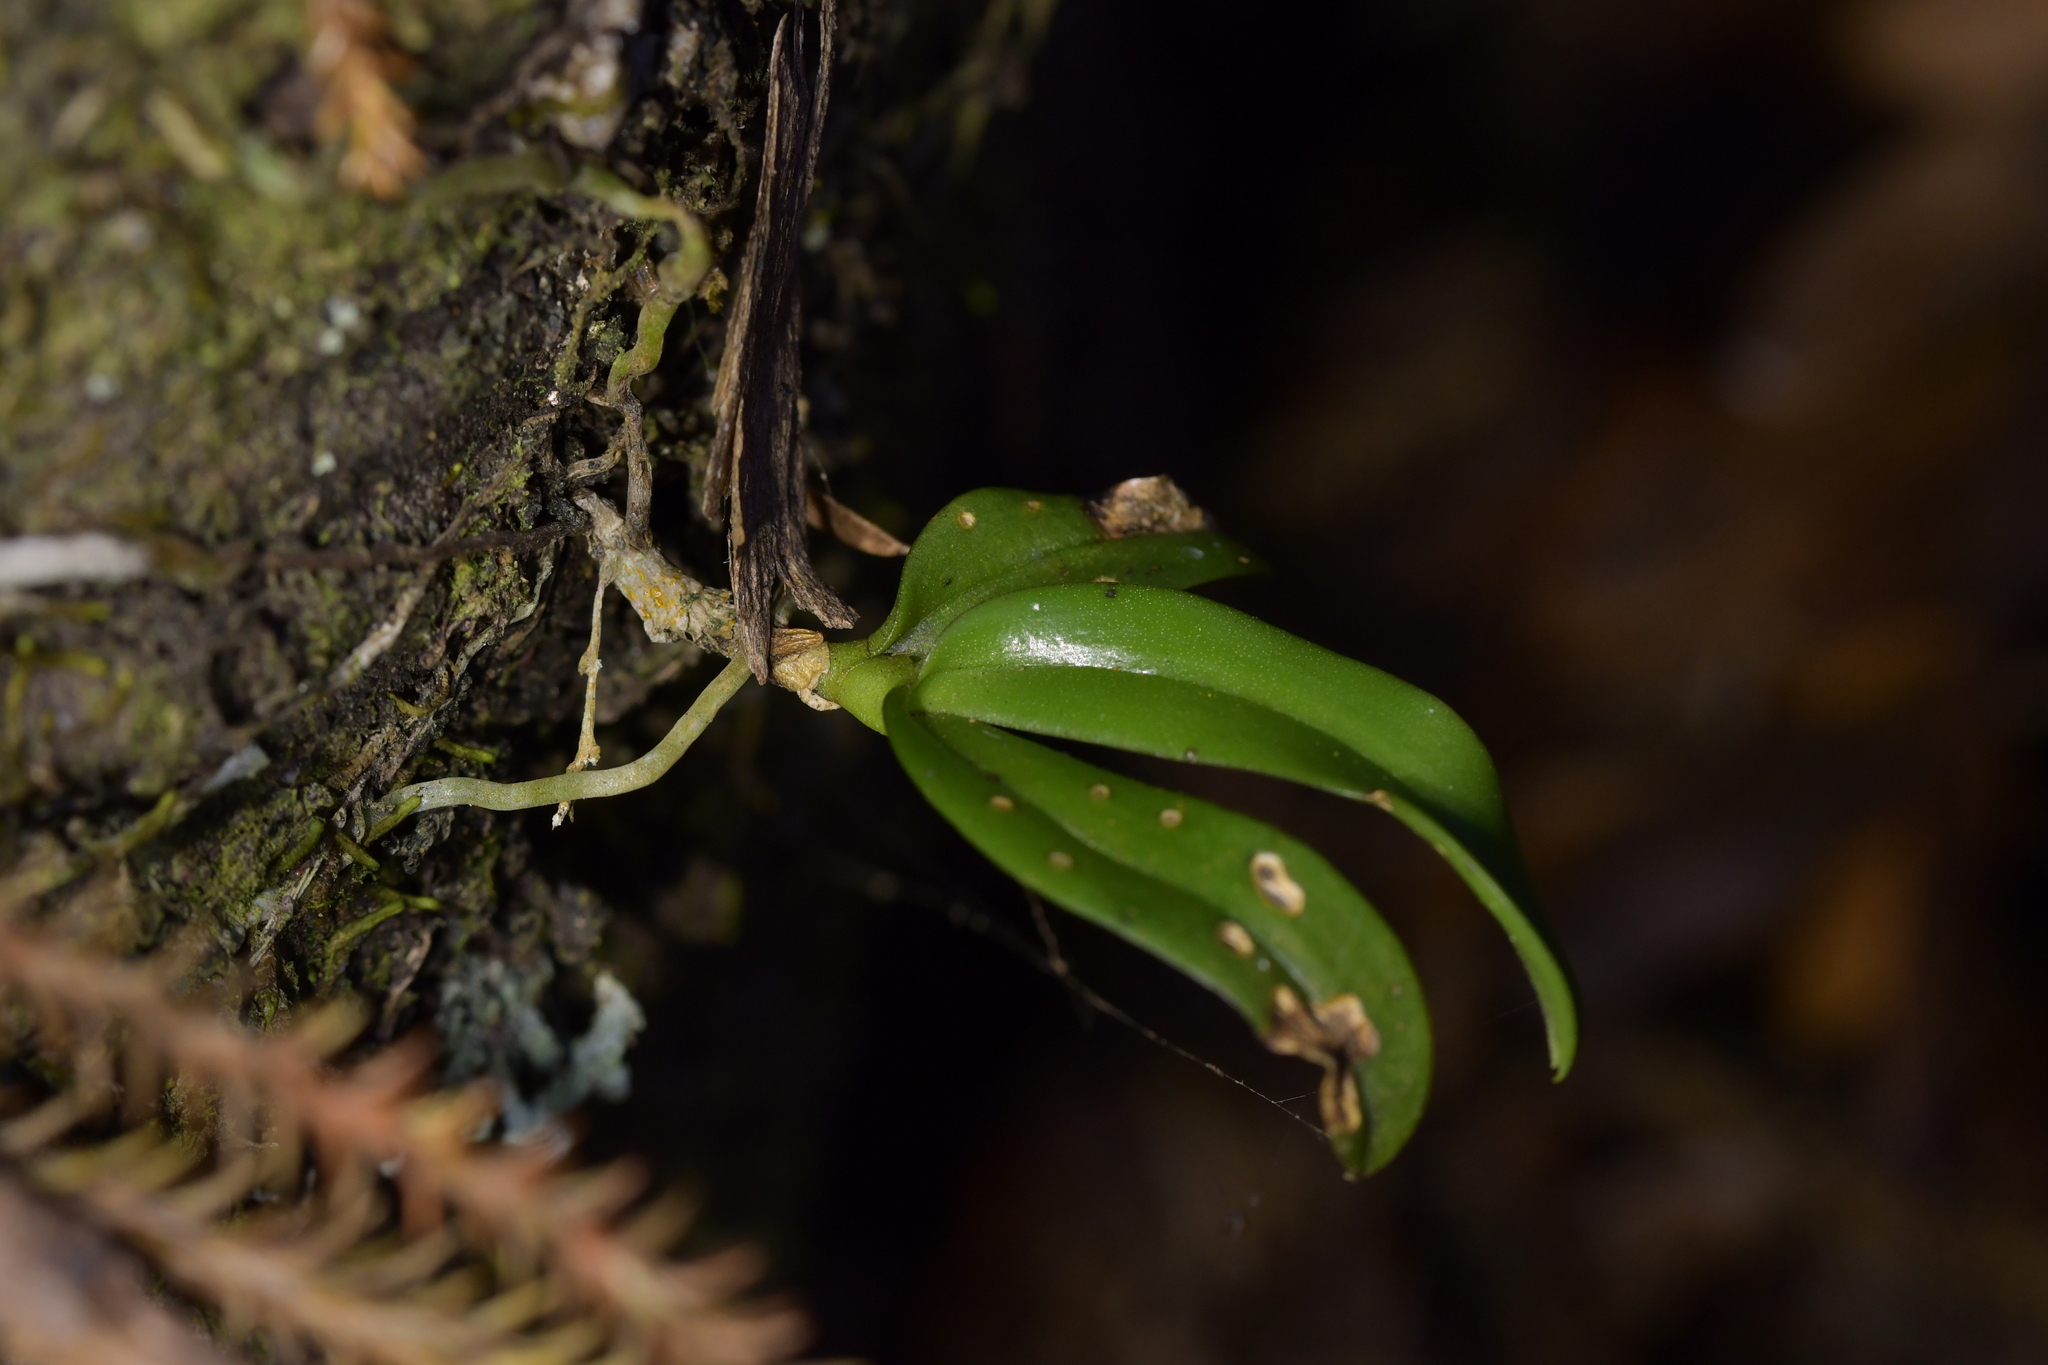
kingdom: Plantae
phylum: Tracheophyta
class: Liliopsida
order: Asparagales
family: Orchidaceae
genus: Drymoanthus
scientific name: Drymoanthus adversus
